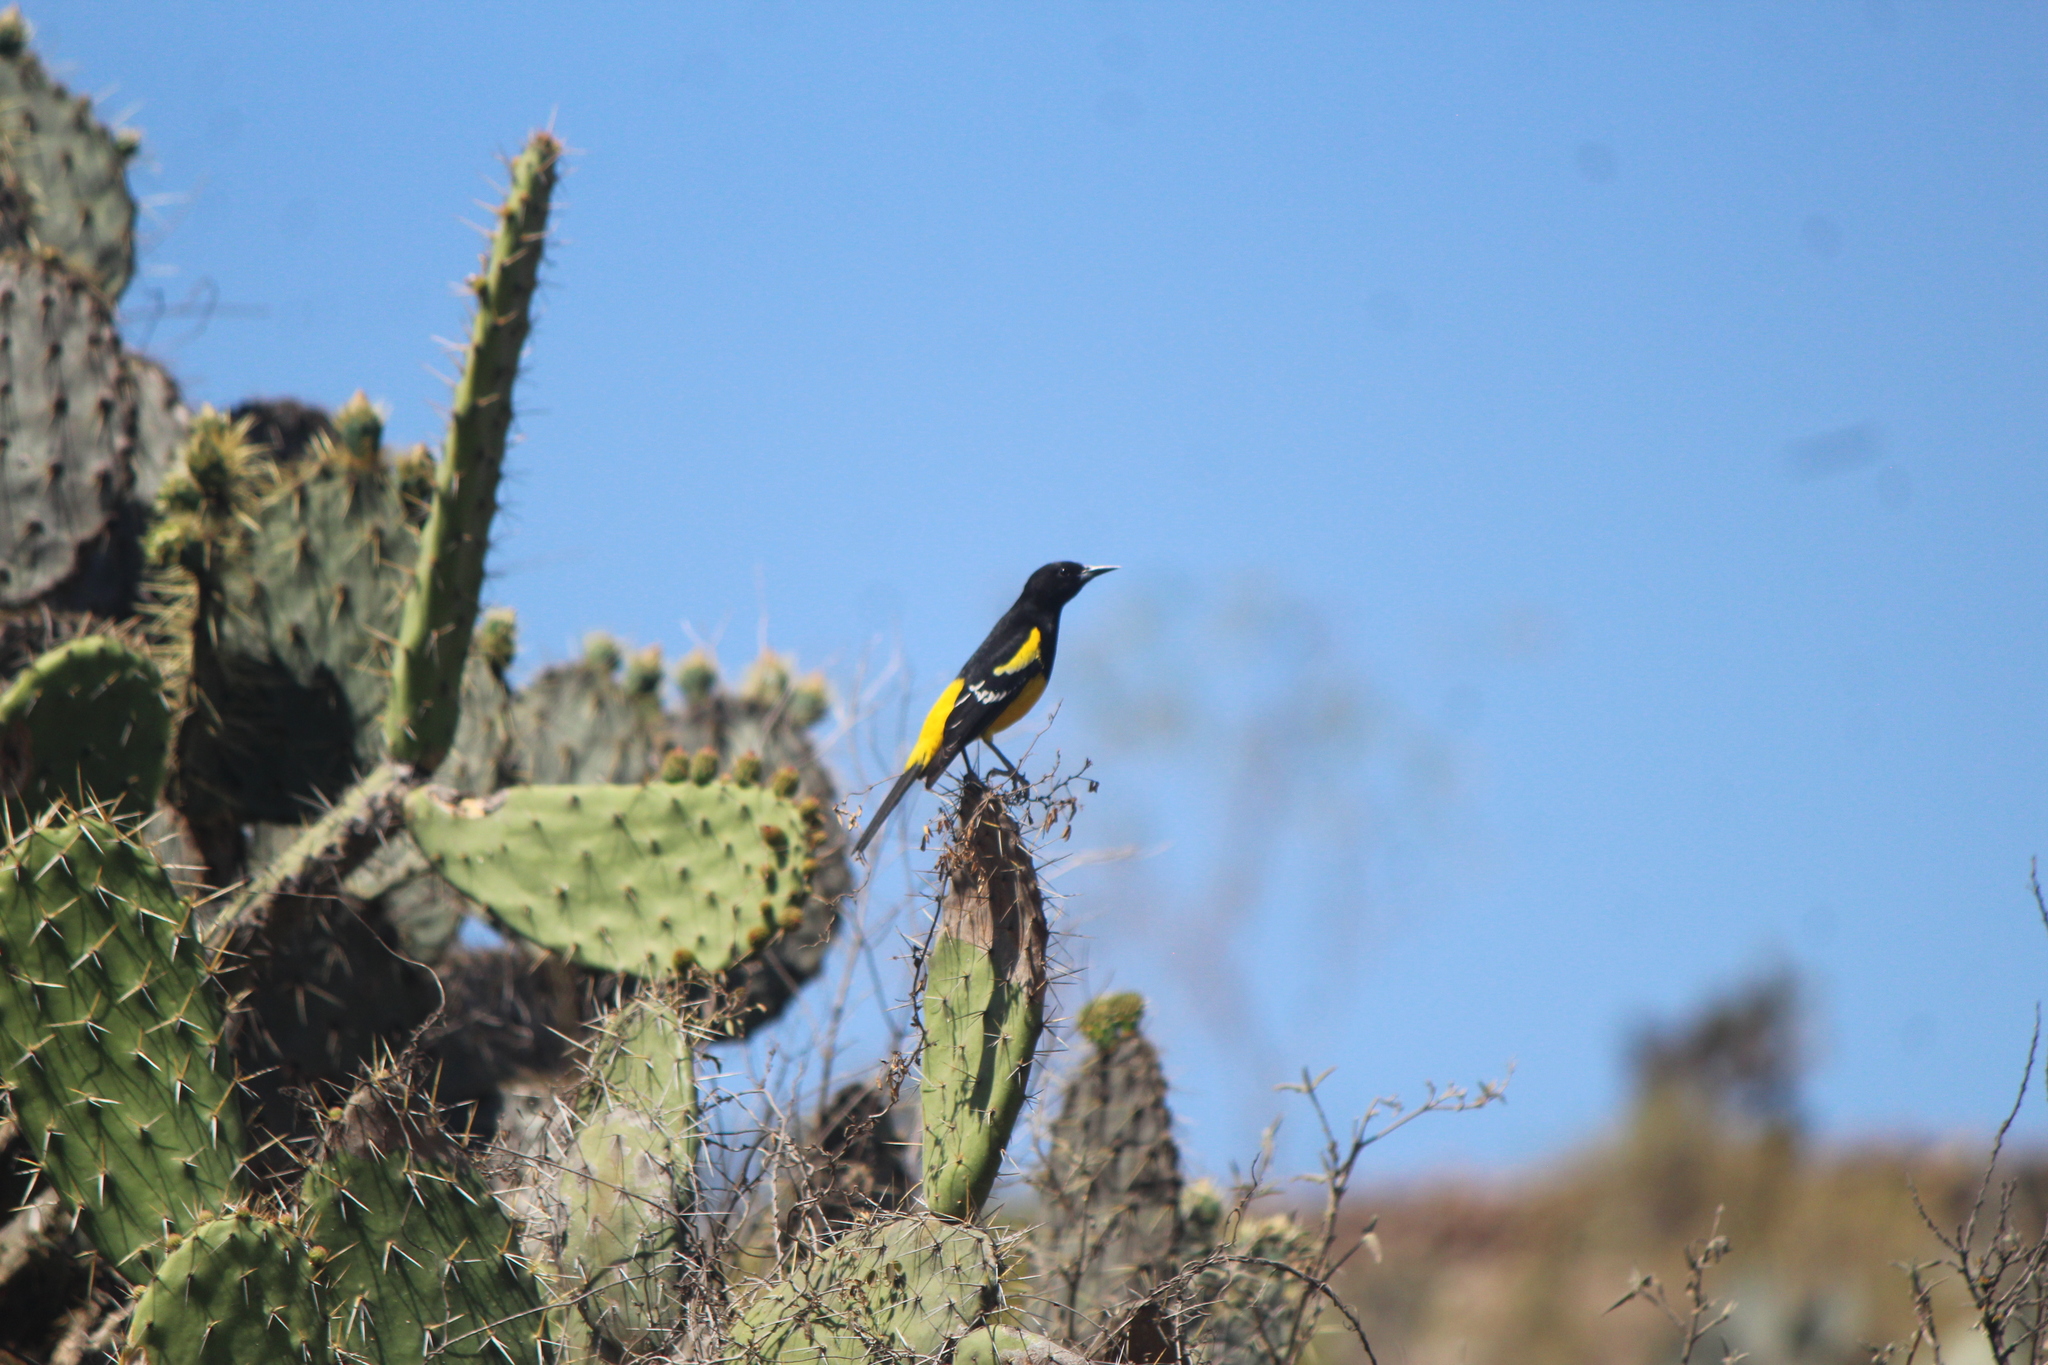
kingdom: Animalia
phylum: Chordata
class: Aves
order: Passeriformes
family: Icteridae
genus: Icterus
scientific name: Icterus parisorum
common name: Scott's oriole
